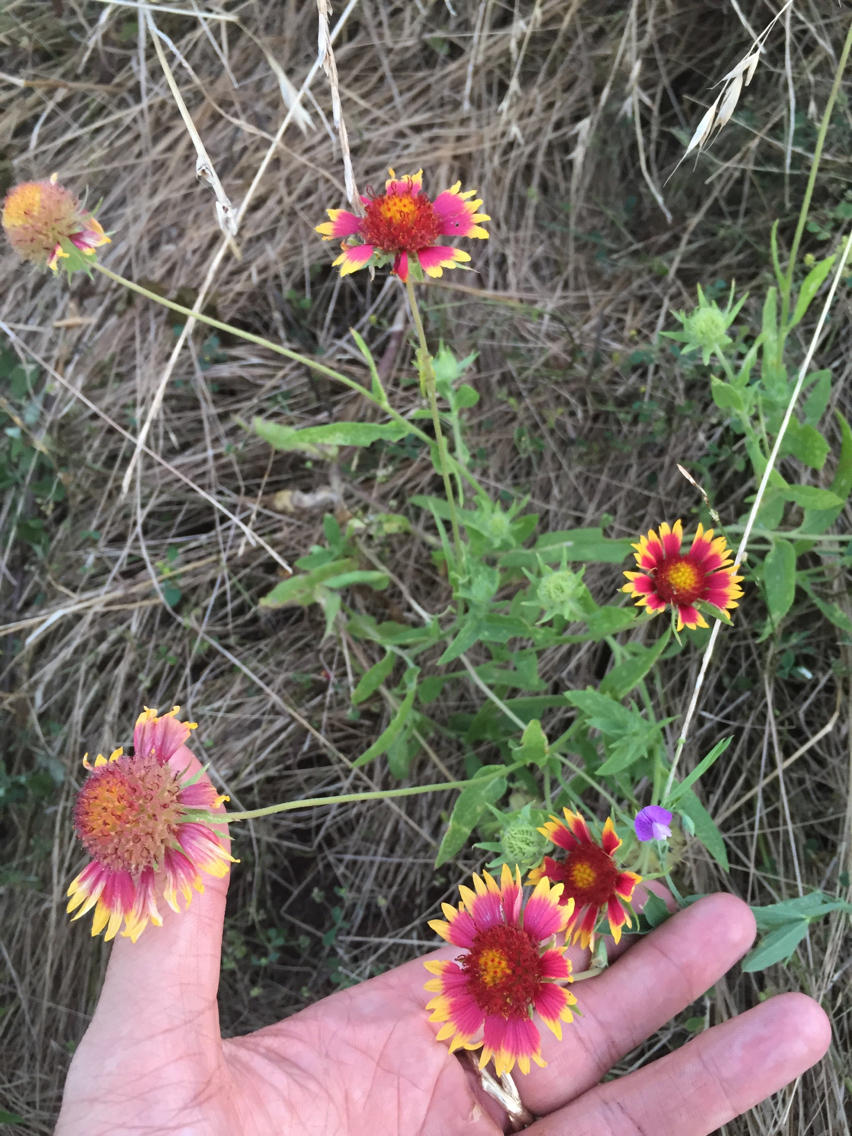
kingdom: Plantae
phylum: Tracheophyta
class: Magnoliopsida
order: Asterales
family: Asteraceae
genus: Gaillardia
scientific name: Gaillardia pulchella
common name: Firewheel
